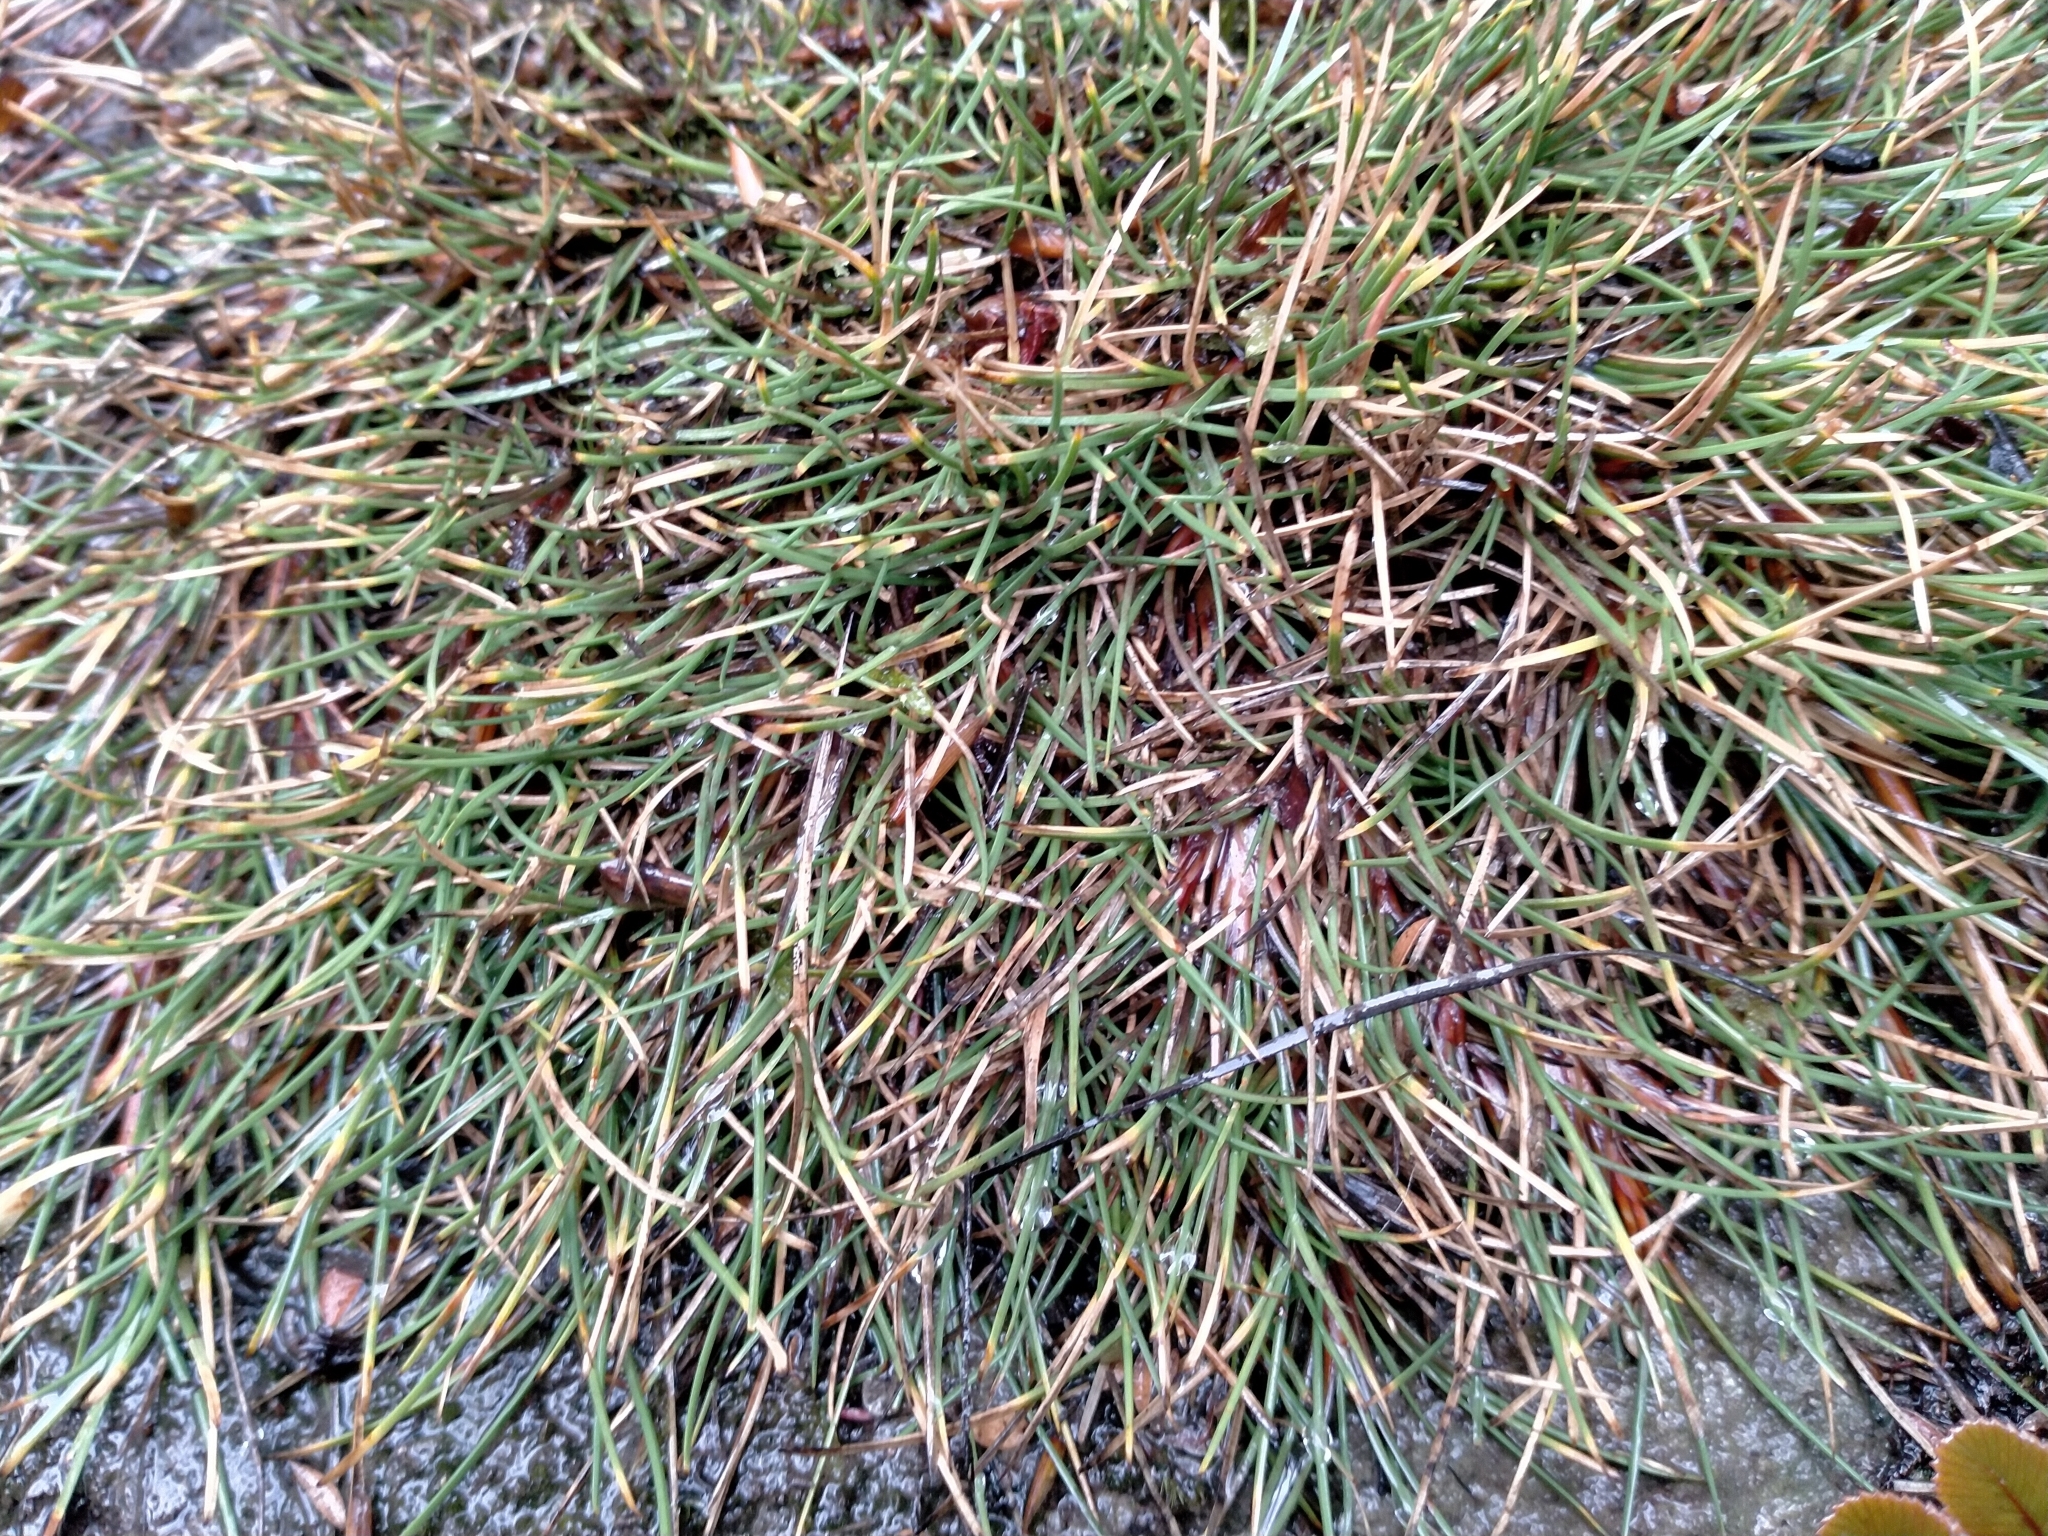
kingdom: Plantae
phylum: Tracheophyta
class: Liliopsida
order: Poales
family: Cyperaceae
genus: Oreobolus
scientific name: Oreobolus strictus
